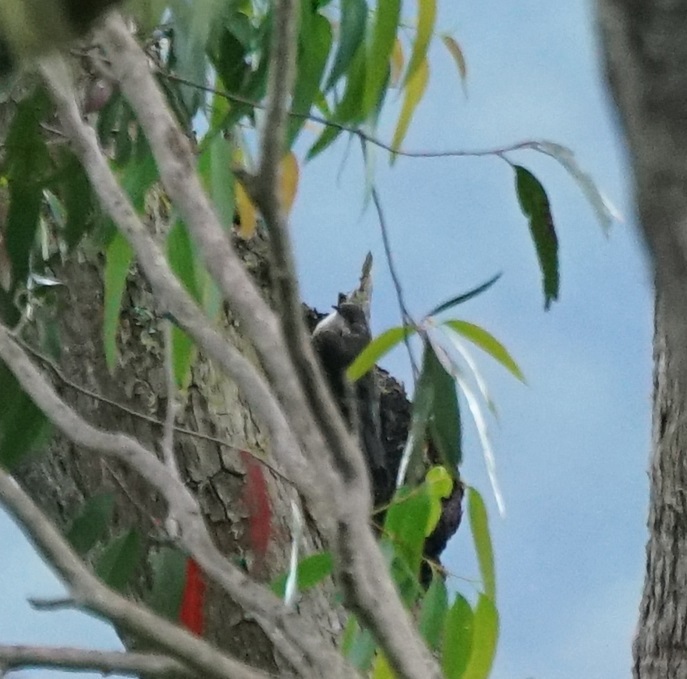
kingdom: Animalia
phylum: Chordata
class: Aves
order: Passeriformes
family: Climacteridae
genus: Cormobates
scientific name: Cormobates leucophaea
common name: White-throated treecreeper
